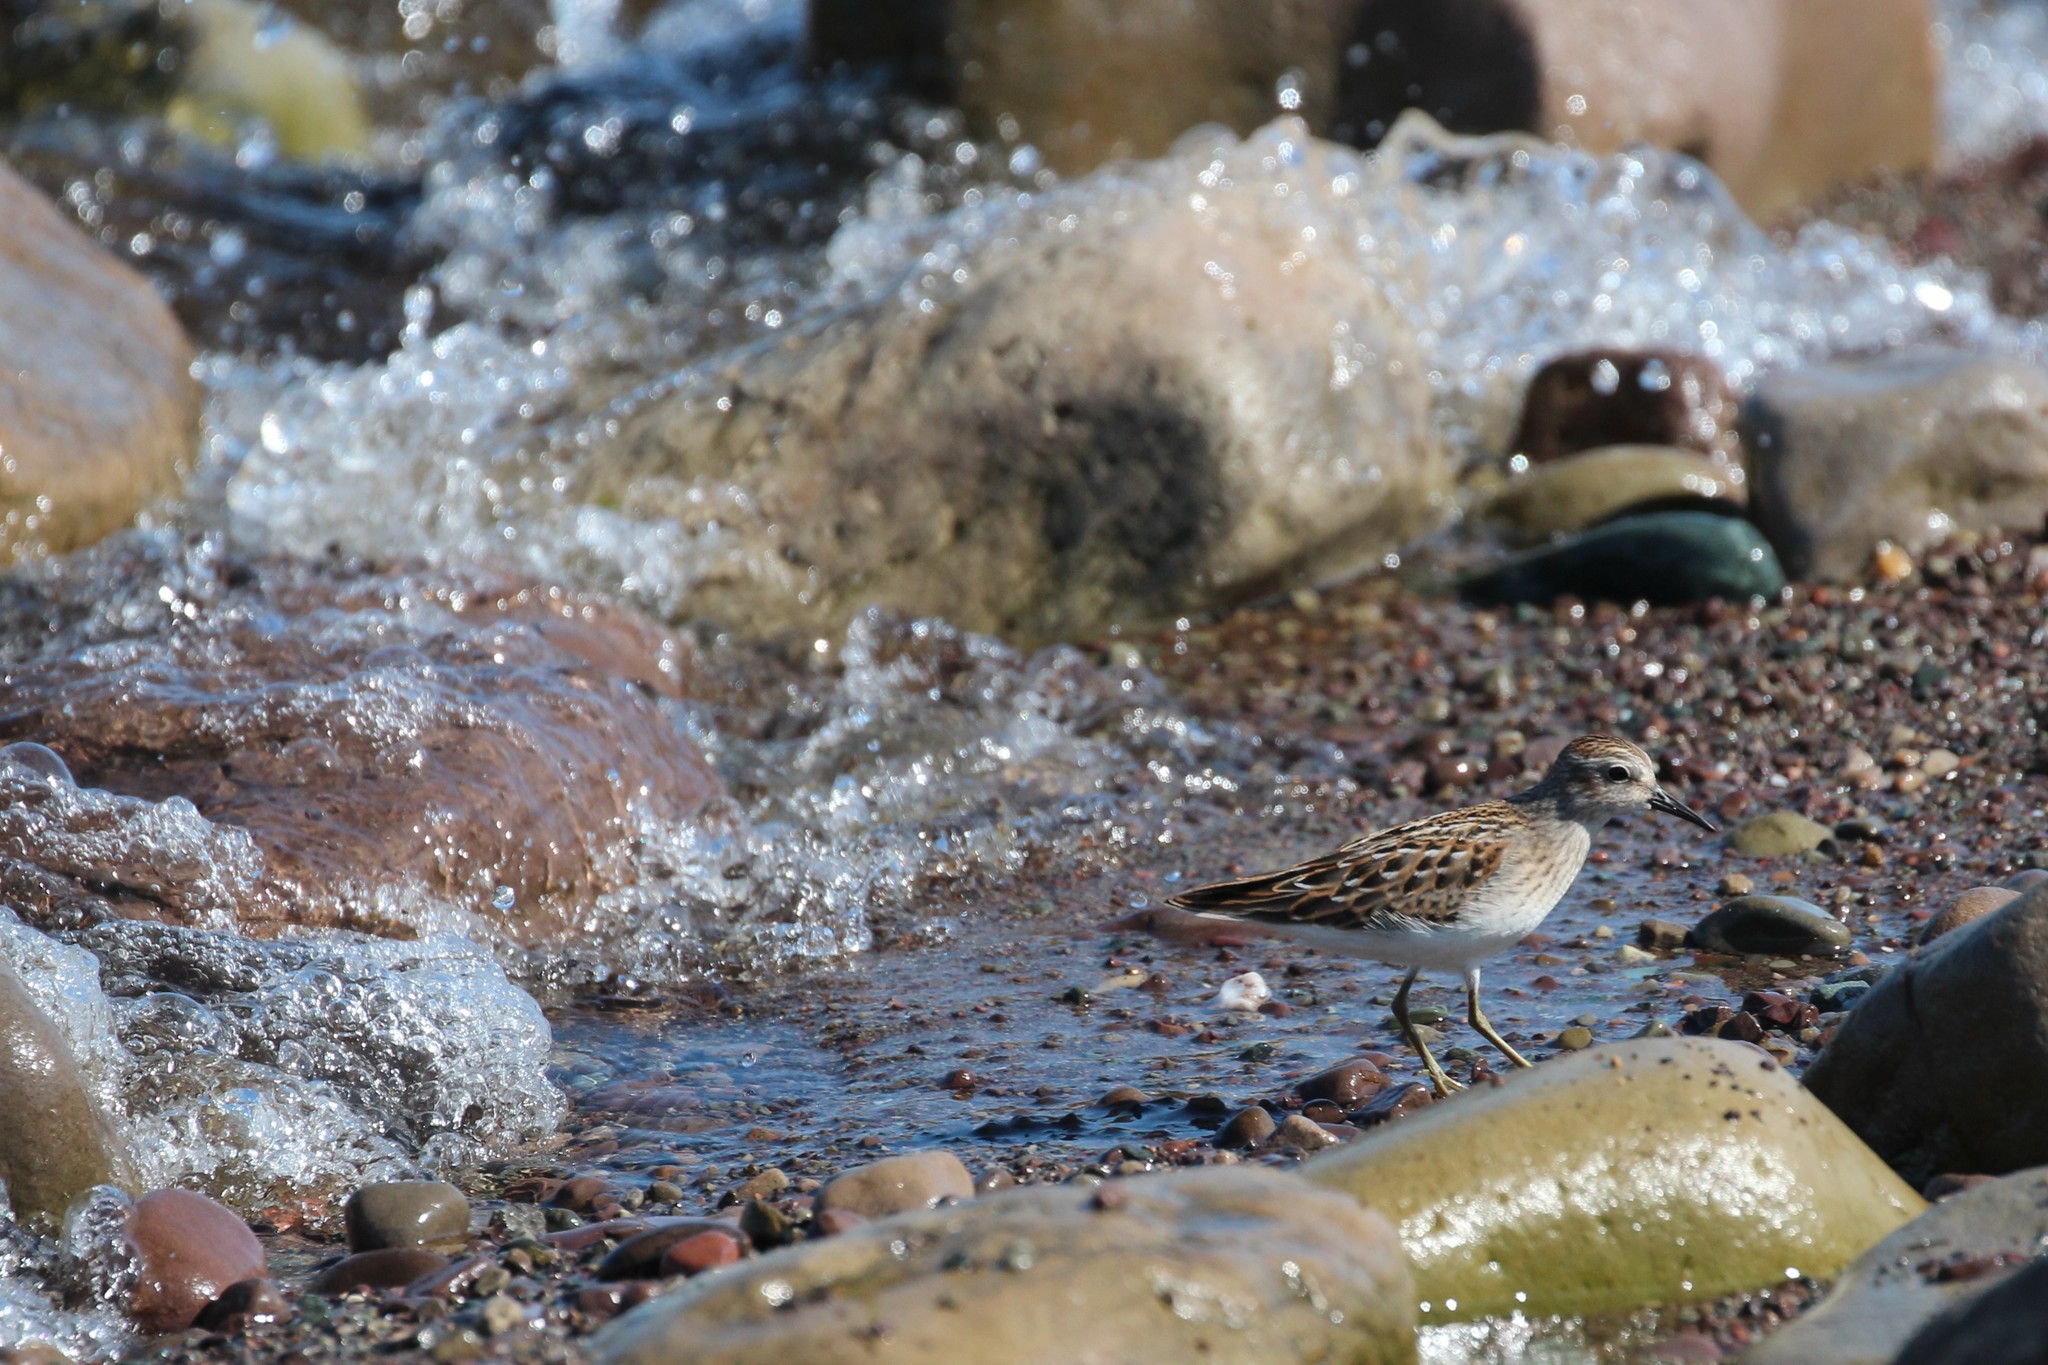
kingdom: Animalia
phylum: Chordata
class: Aves
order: Charadriiformes
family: Scolopacidae
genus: Calidris
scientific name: Calidris minutilla
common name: Least sandpiper
